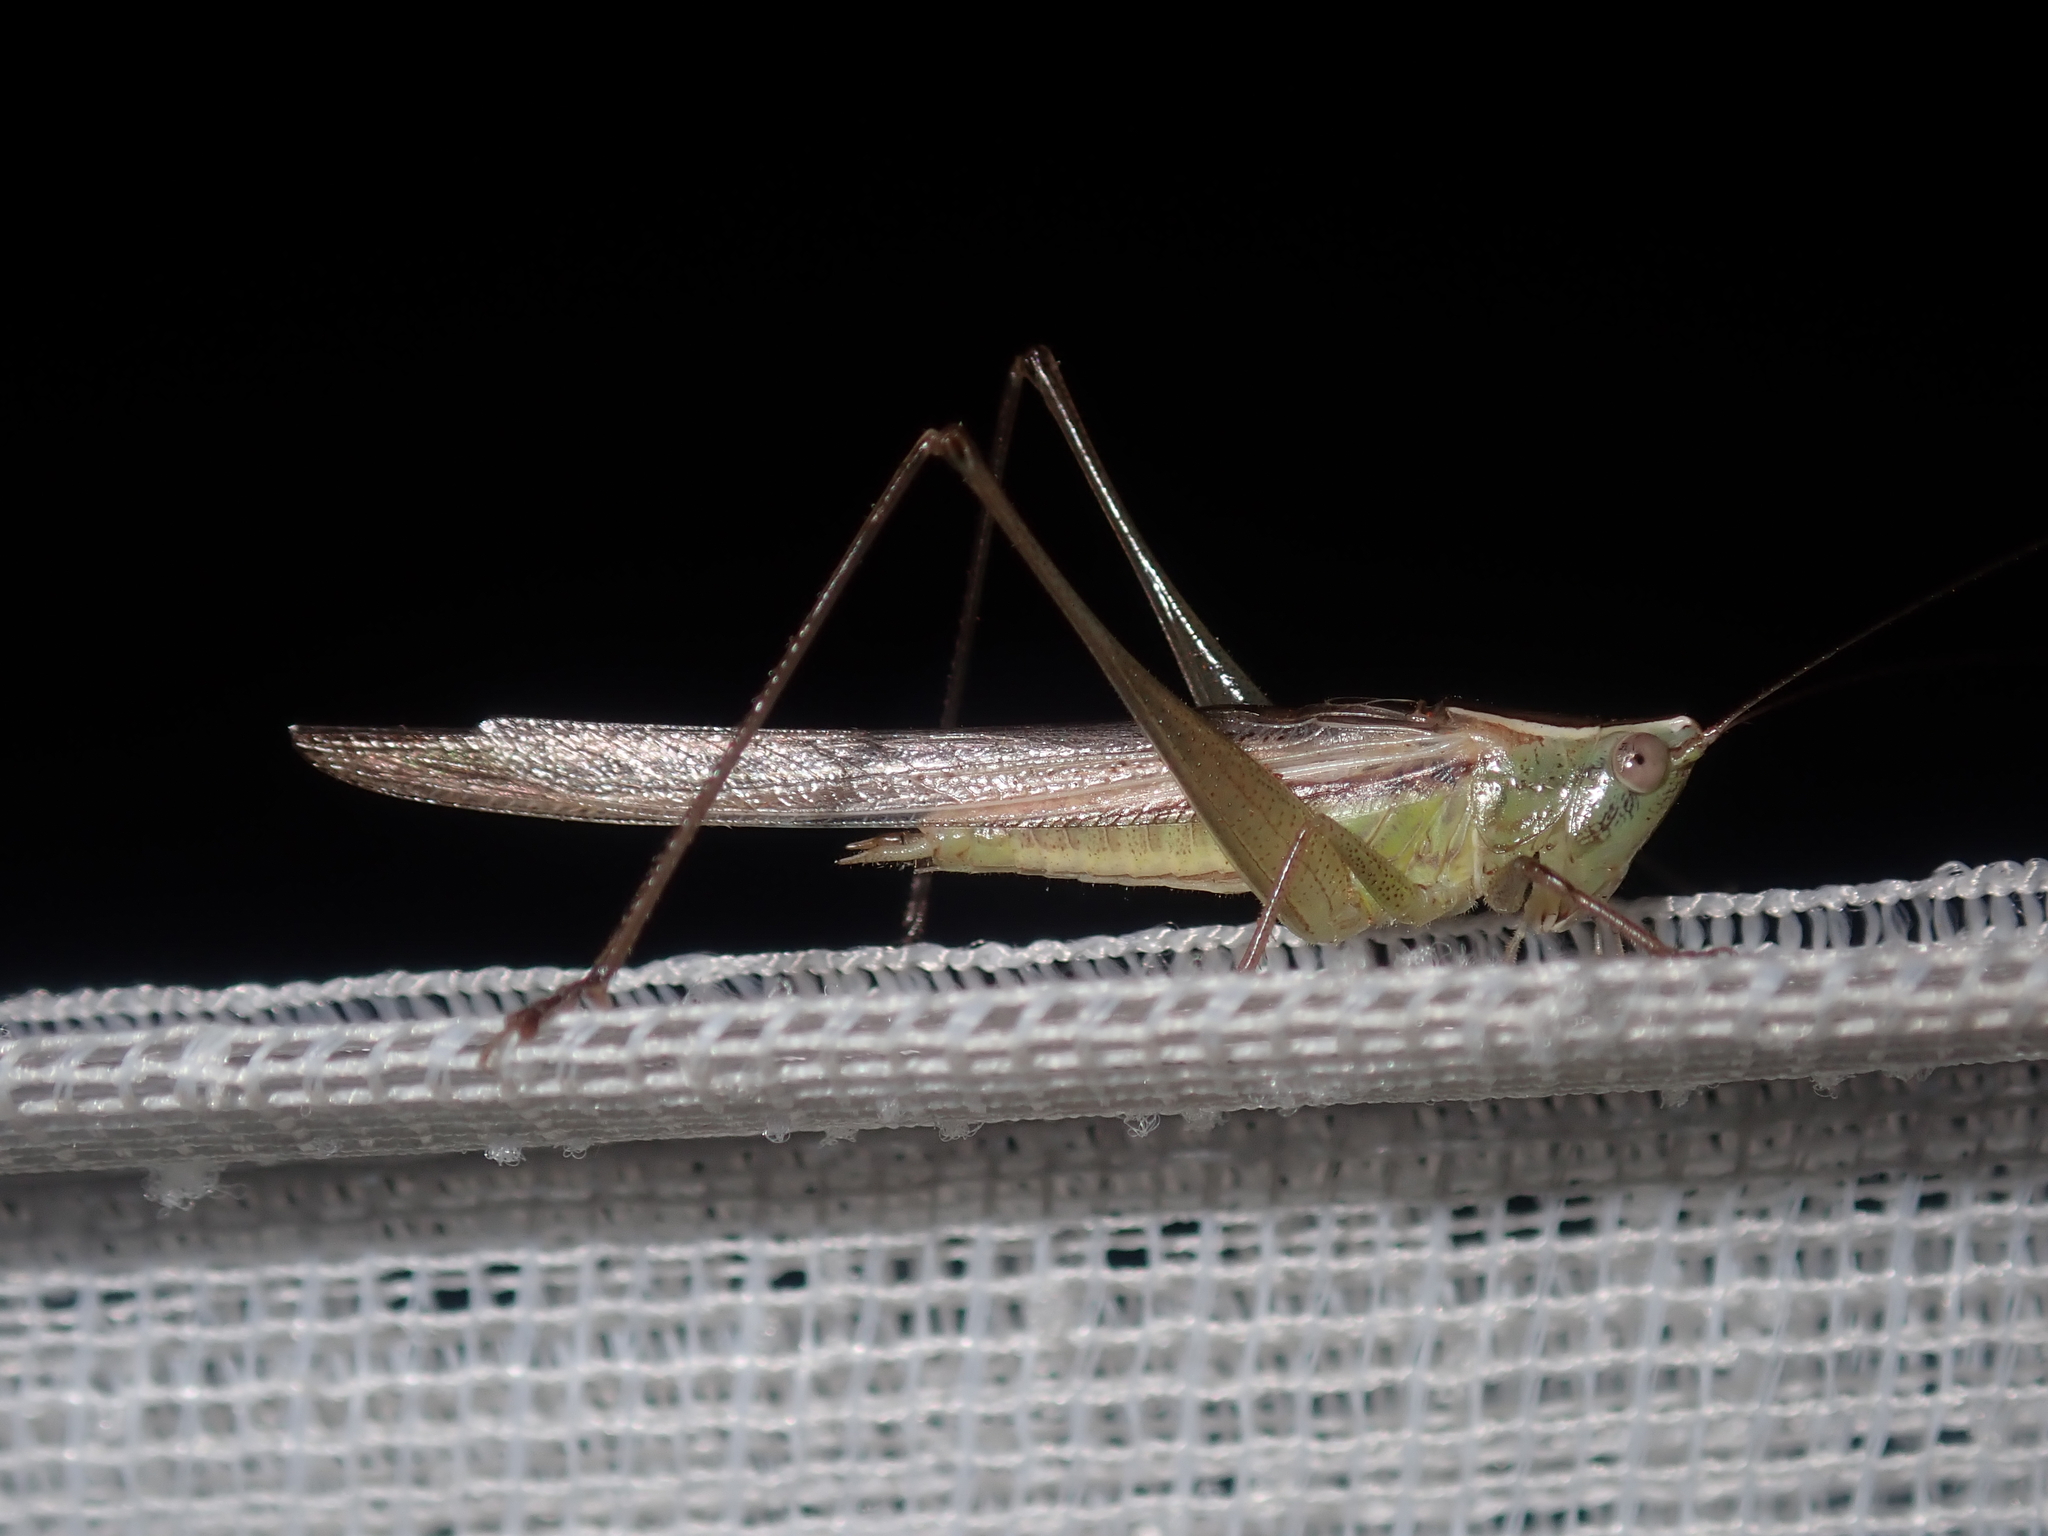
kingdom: Animalia
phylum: Arthropoda
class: Insecta
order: Orthoptera
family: Tettigoniidae
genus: Conocephalus
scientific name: Conocephalus upoluensis
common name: Upolu meadow katydid
